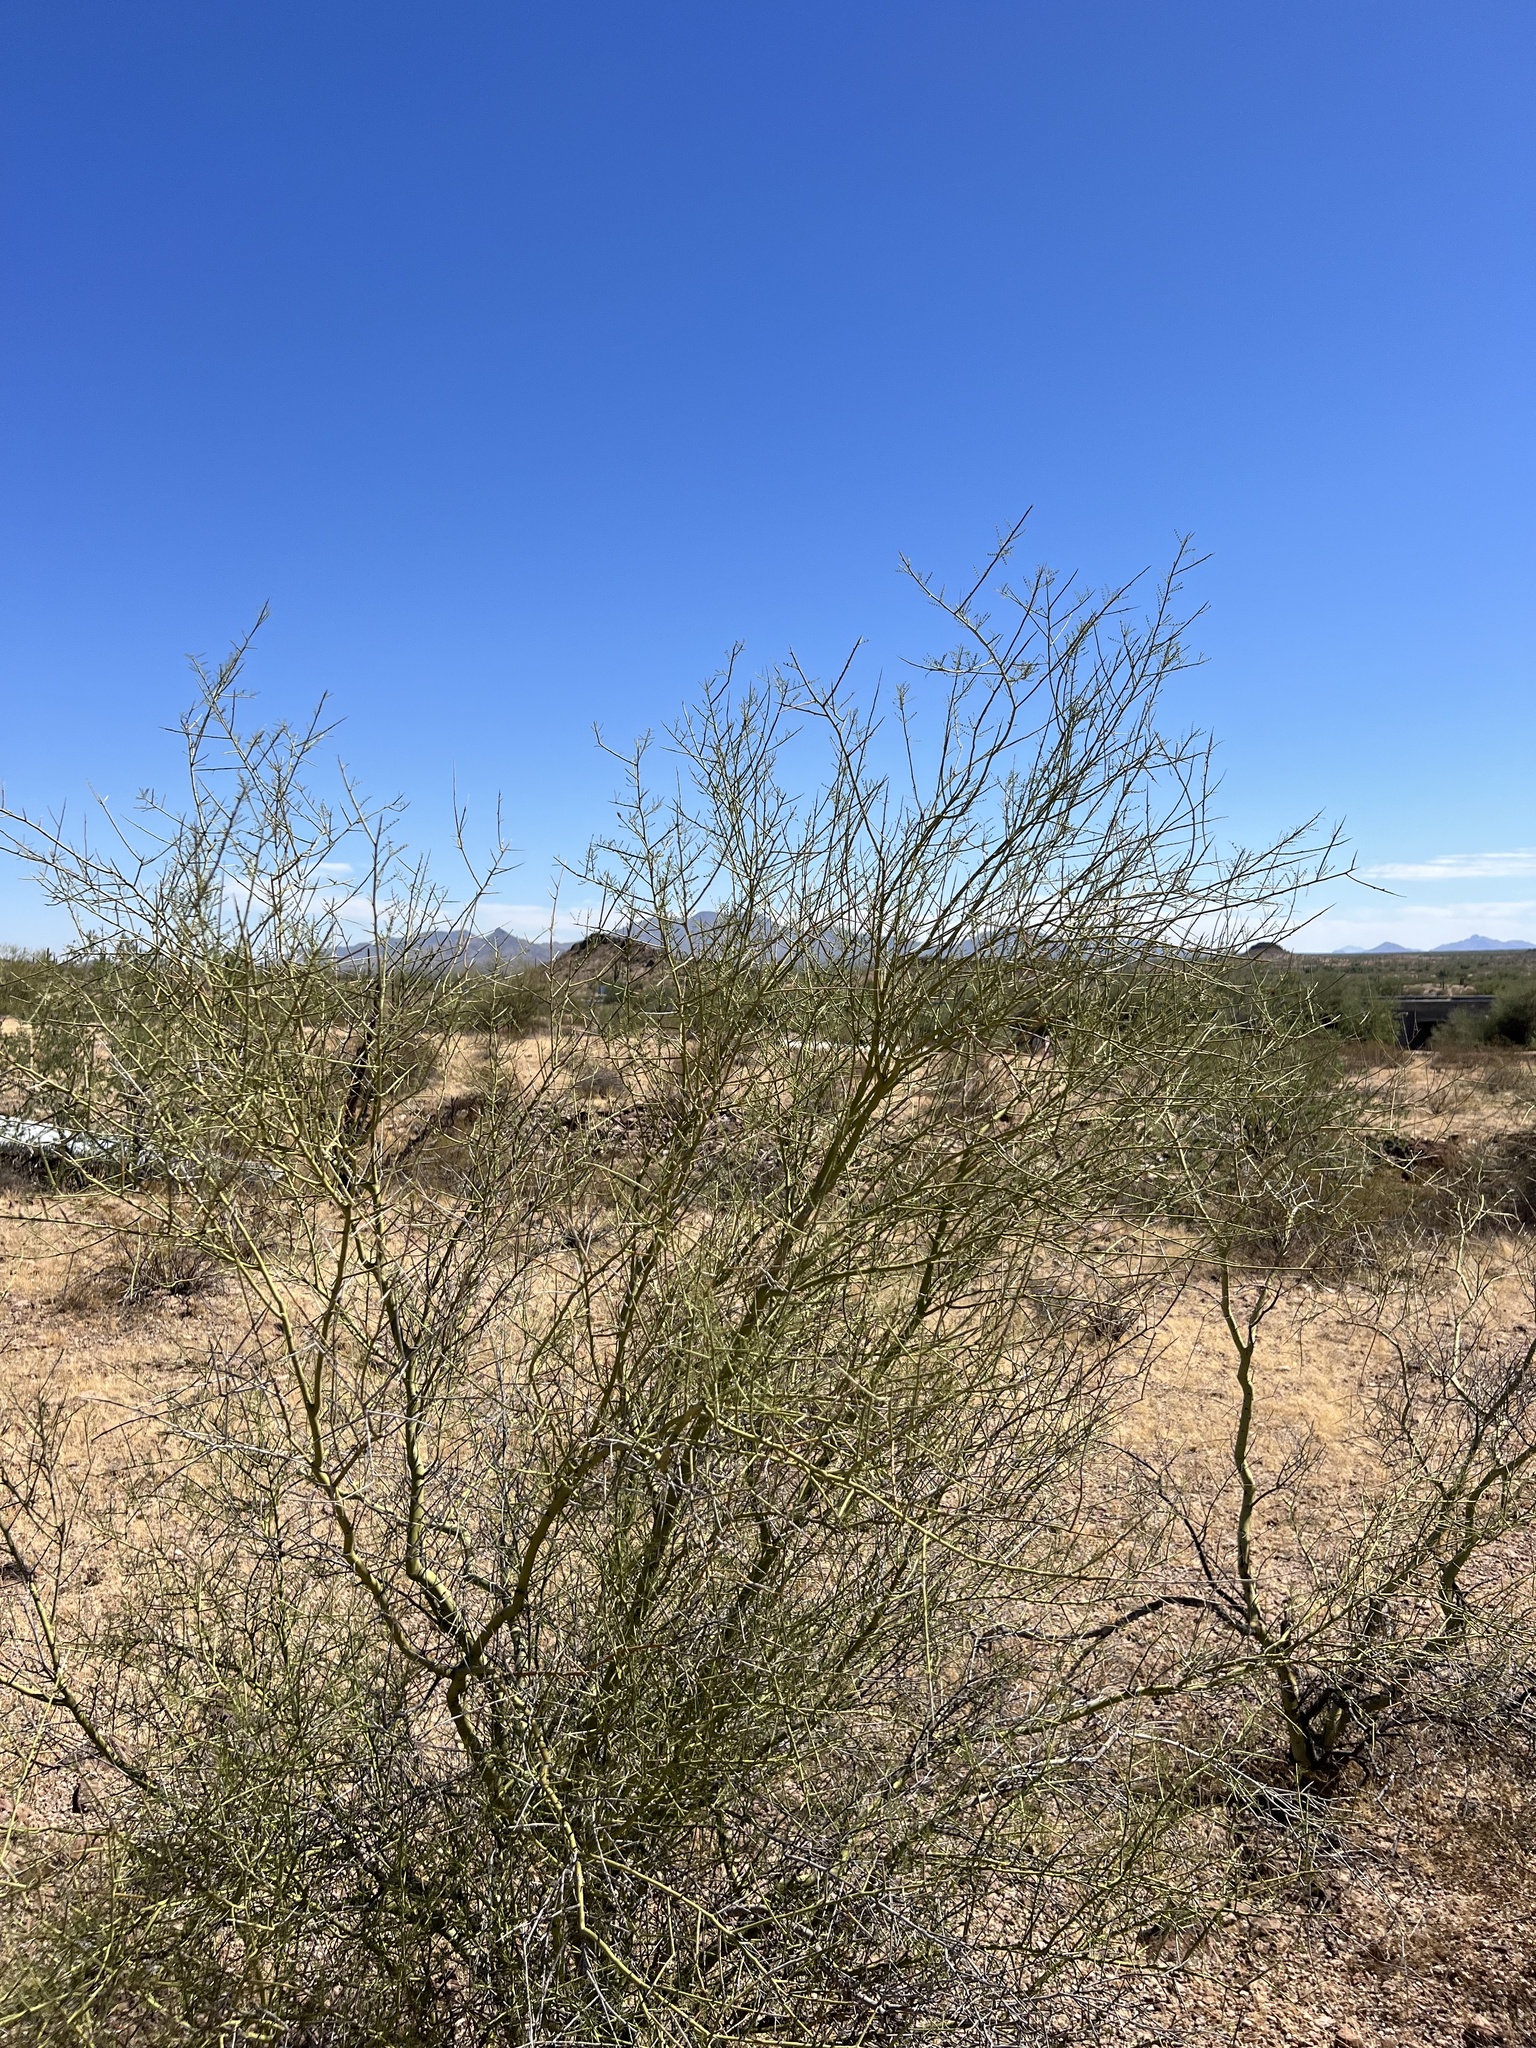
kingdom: Plantae
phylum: Tracheophyta
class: Magnoliopsida
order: Fabales
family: Fabaceae
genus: Parkinsonia
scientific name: Parkinsonia microphylla
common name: Yellow paloverde
